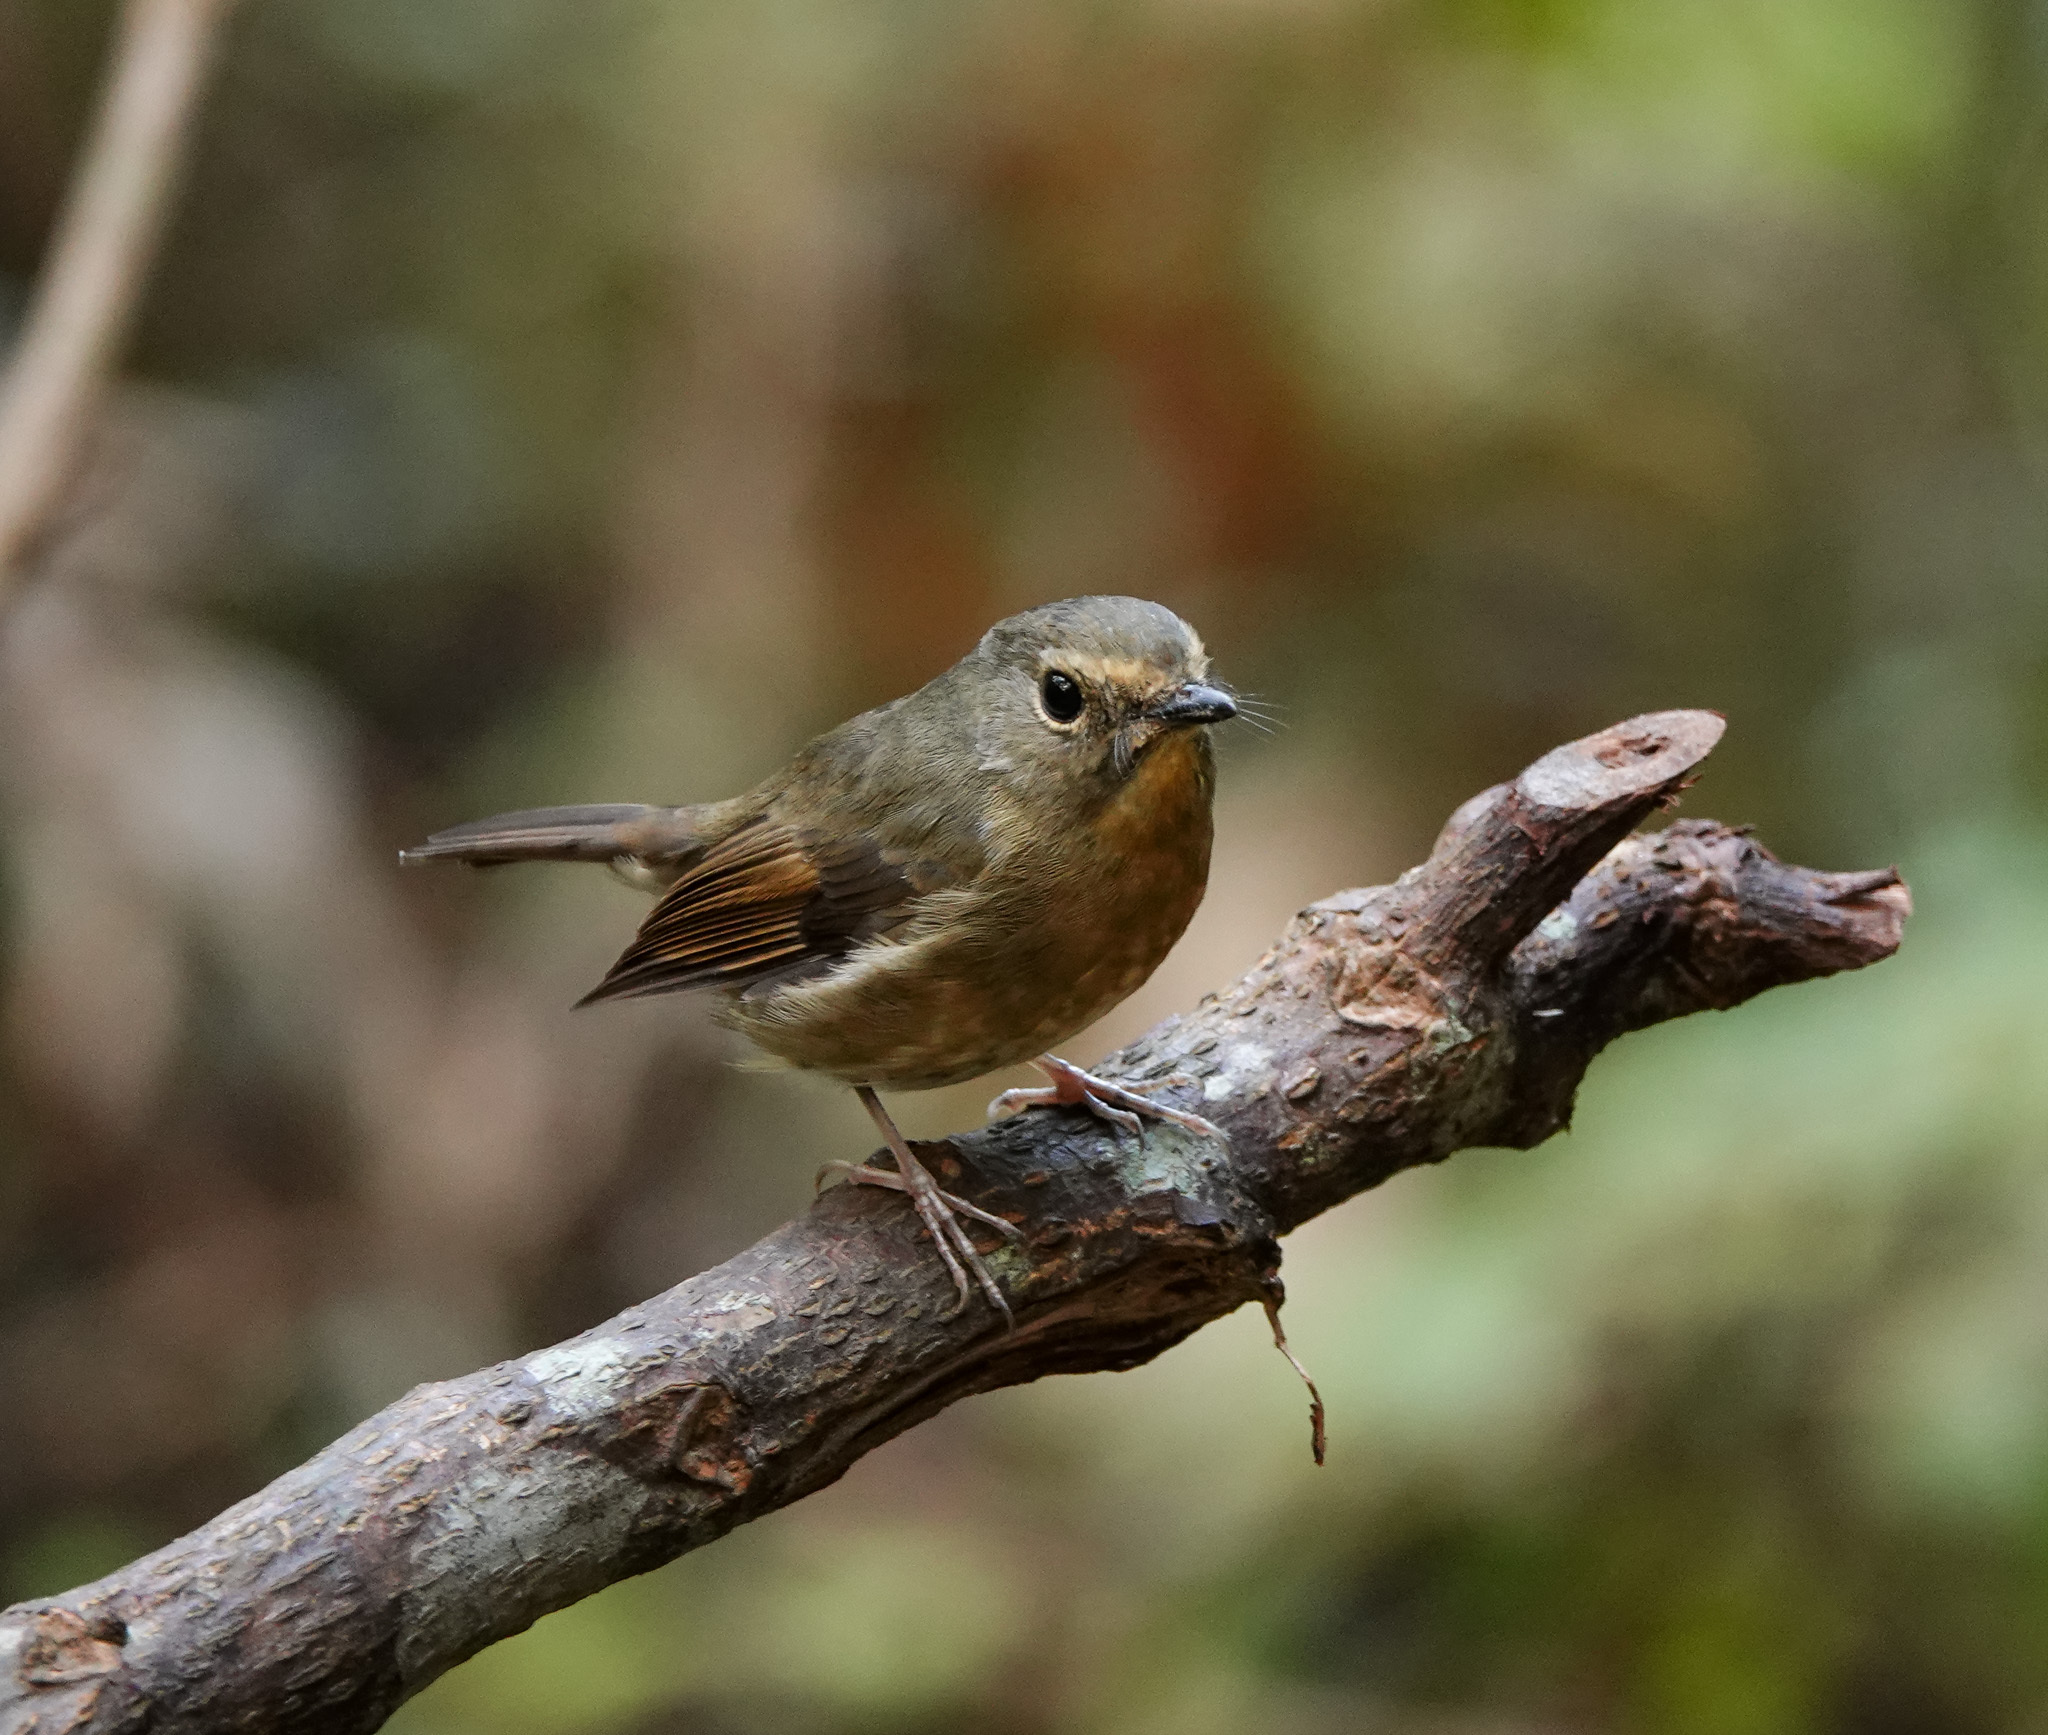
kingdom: Animalia
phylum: Chordata
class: Aves
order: Passeriformes
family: Muscicapidae
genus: Ficedula
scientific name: Ficedula hyperythra
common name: Snowy-browed flycatcher
